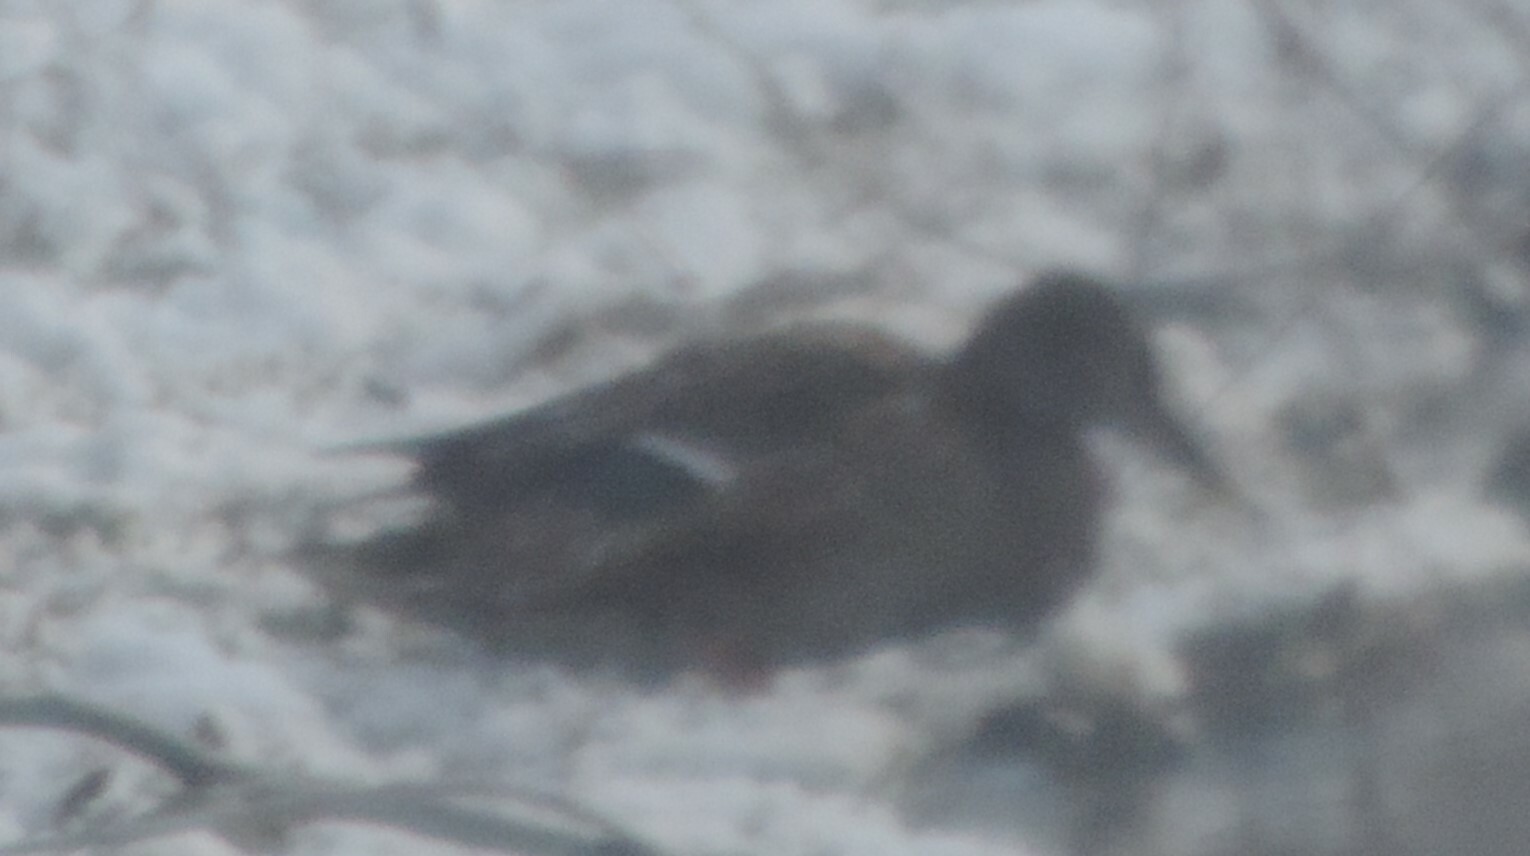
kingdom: Animalia
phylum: Chordata
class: Aves
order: Anseriformes
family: Anatidae
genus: Anas
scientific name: Anas platyrhynchos
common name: Mallard
